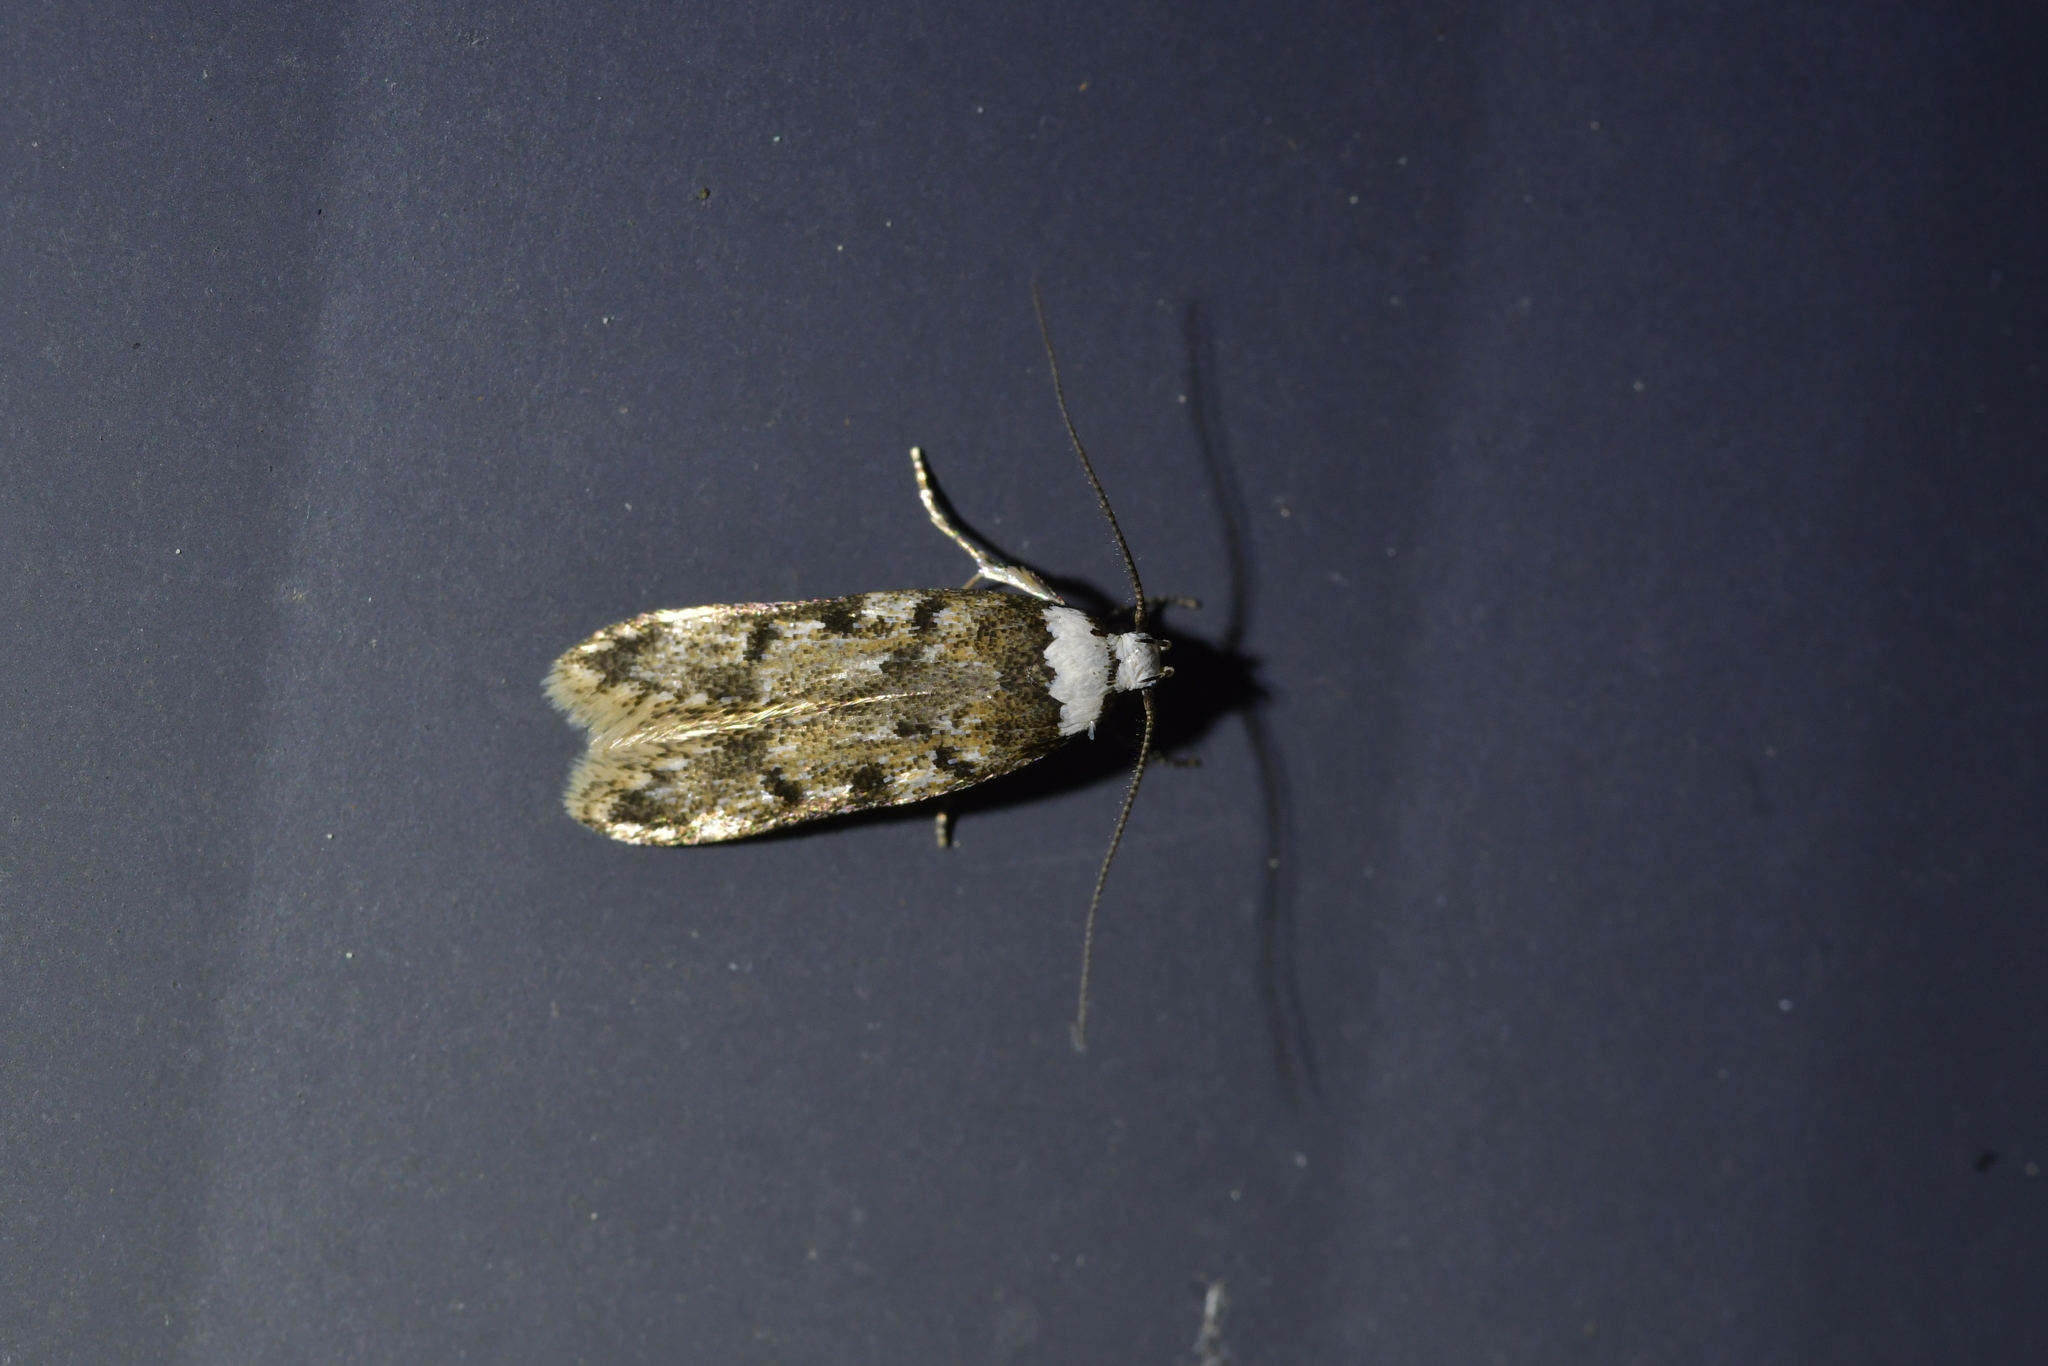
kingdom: Animalia
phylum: Arthropoda
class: Insecta
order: Lepidoptera
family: Oecophoridae
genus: Endrosis
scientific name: Endrosis sarcitrella
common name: White-shouldered house moth
